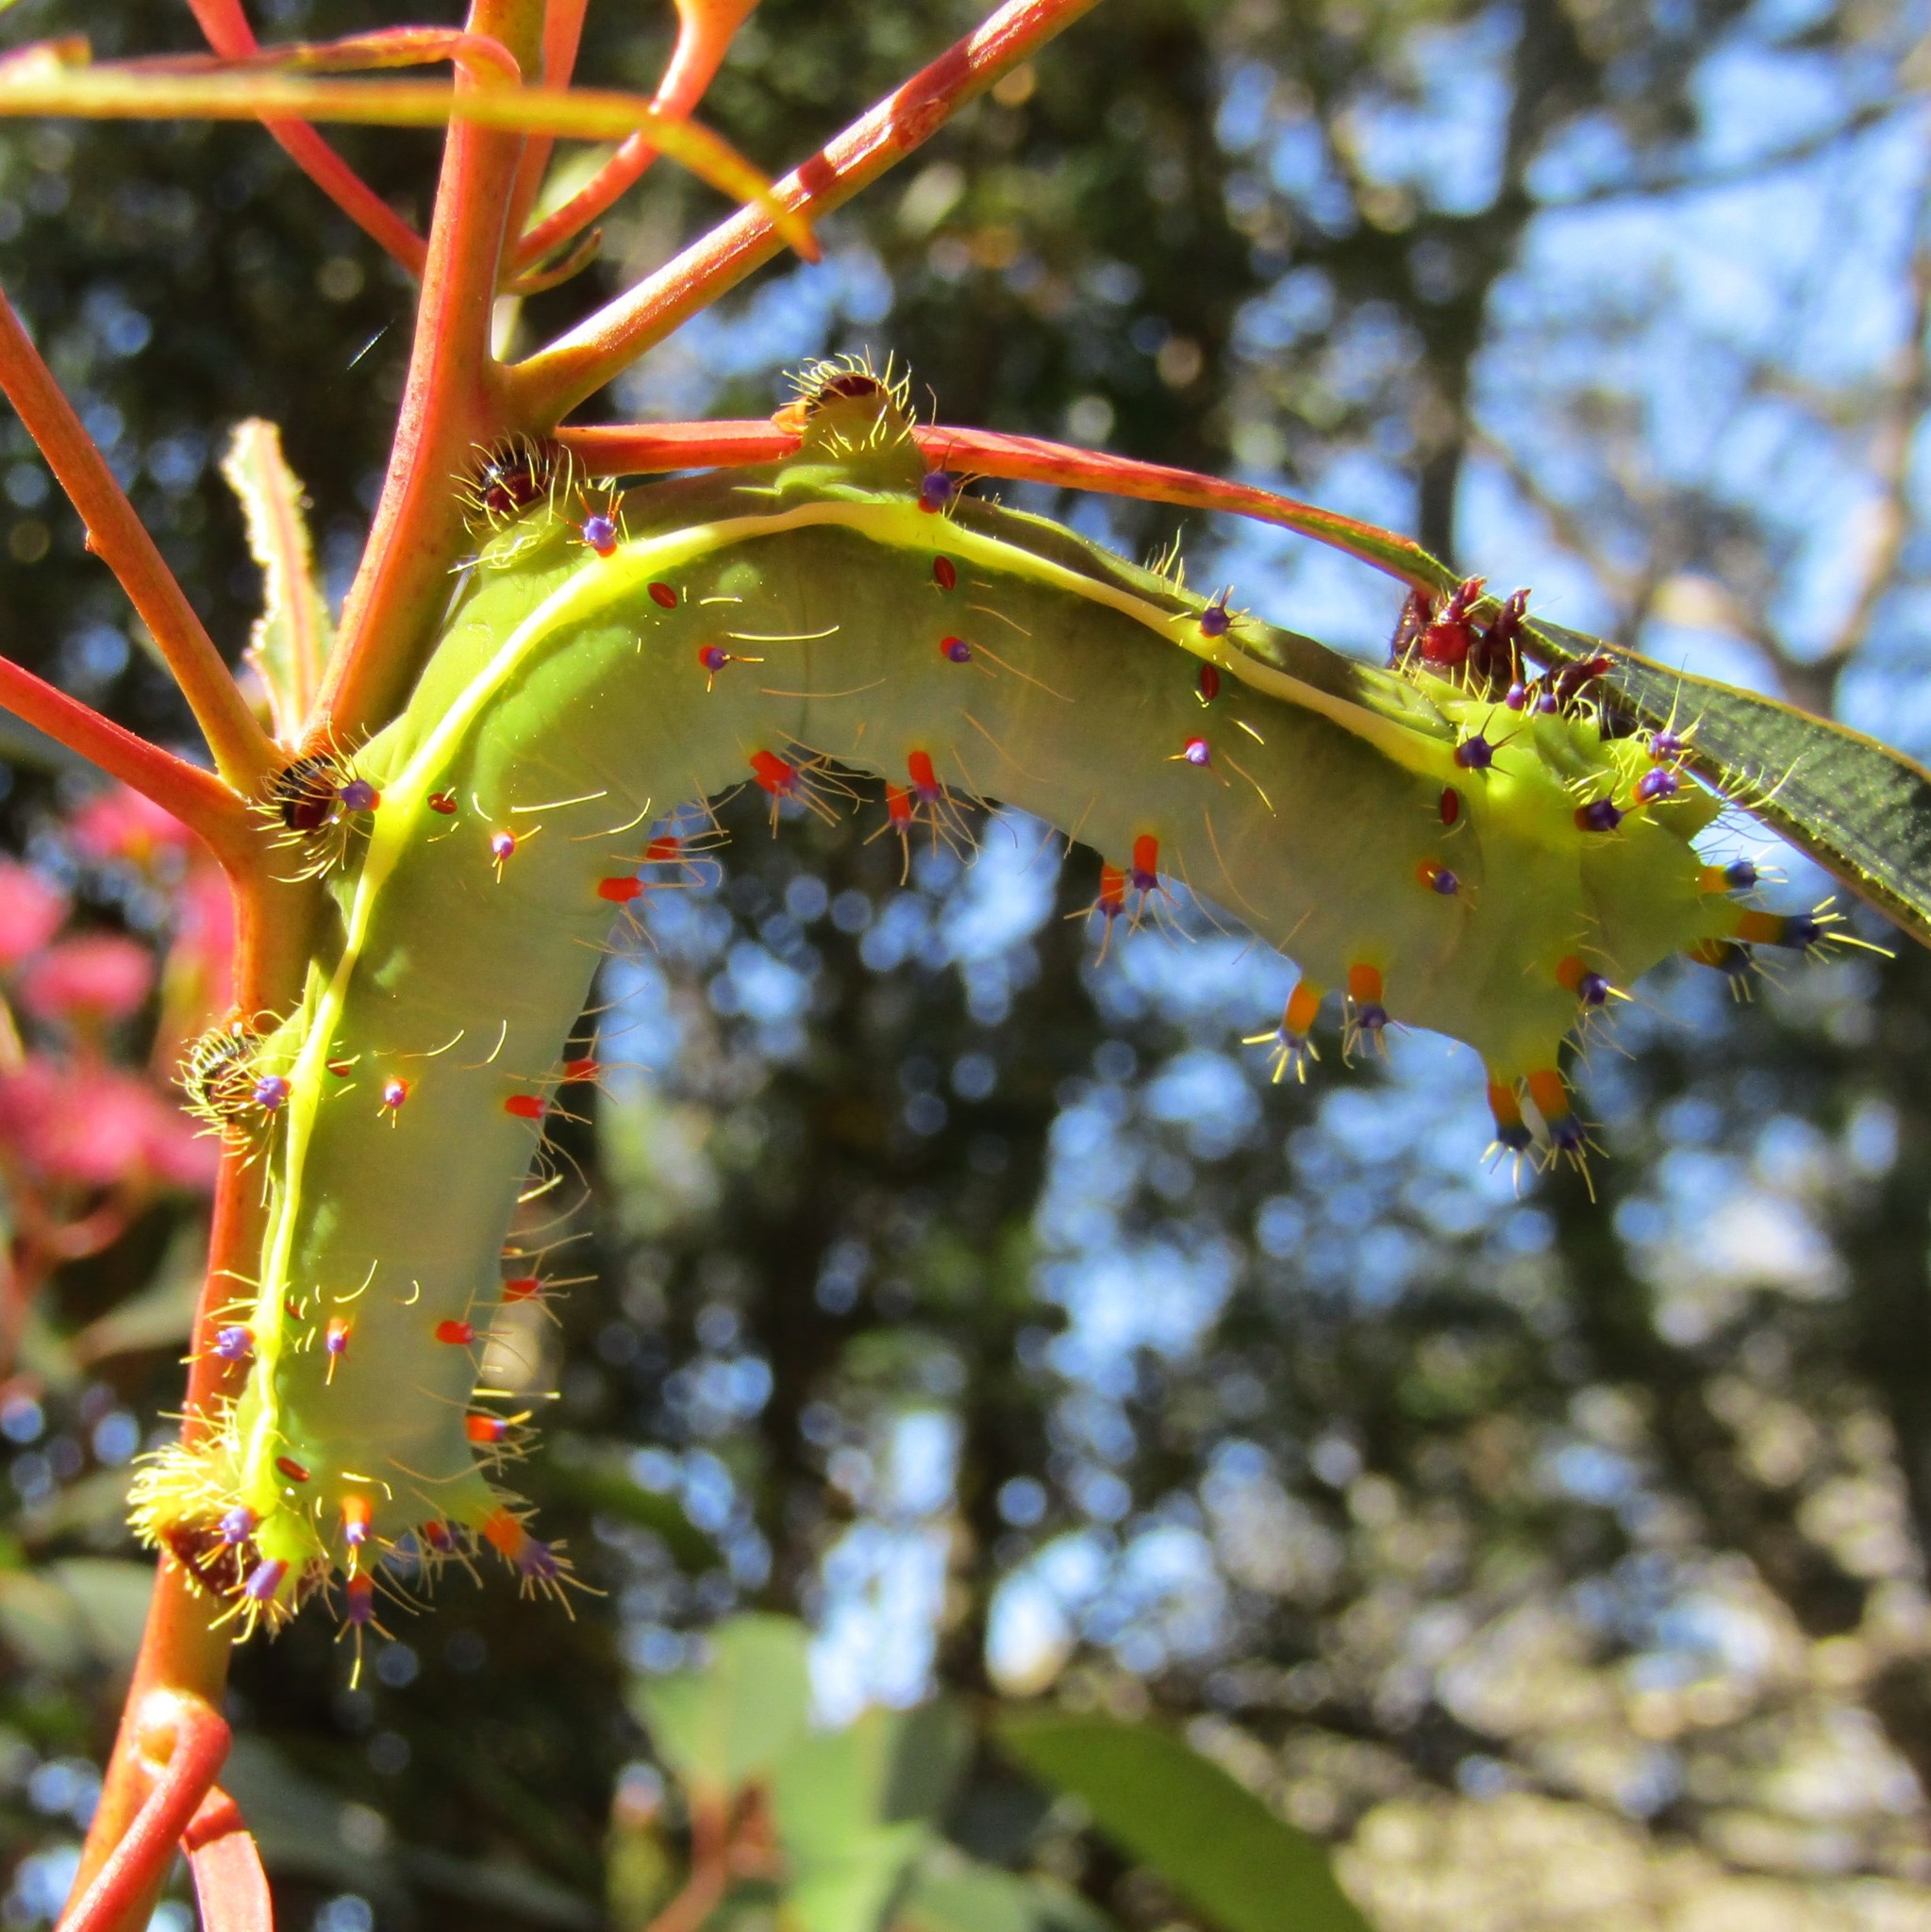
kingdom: Animalia
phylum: Arthropoda
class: Insecta
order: Lepidoptera
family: Saturniidae
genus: Opodiphthera
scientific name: Opodiphthera
